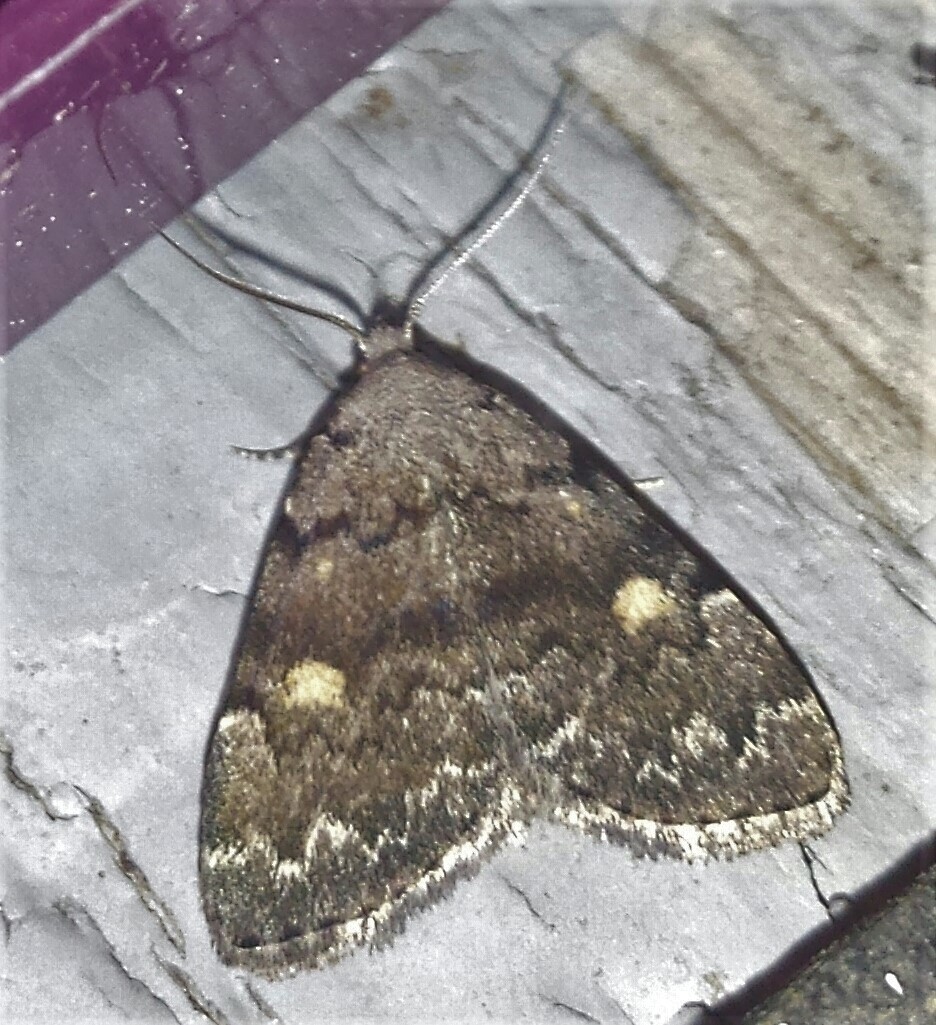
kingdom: Animalia
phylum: Arthropoda
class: Insecta
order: Lepidoptera
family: Erebidae
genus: Idia
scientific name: Idia aemula
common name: Common idia moth
